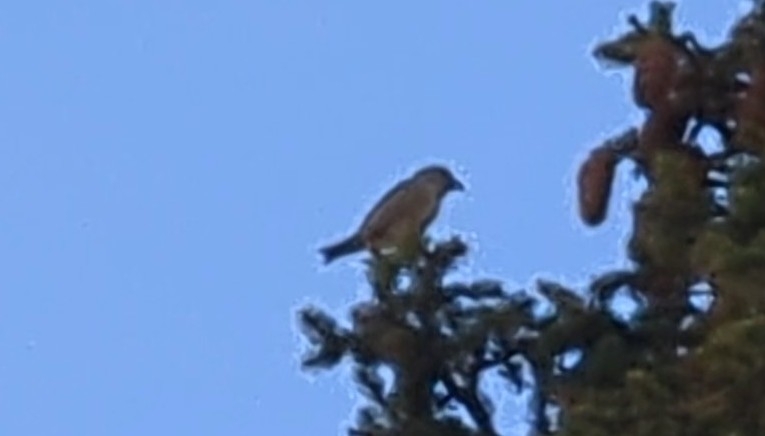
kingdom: Animalia
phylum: Chordata
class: Aves
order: Passeriformes
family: Fringillidae
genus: Loxia
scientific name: Loxia curvirostra
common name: Red crossbill
